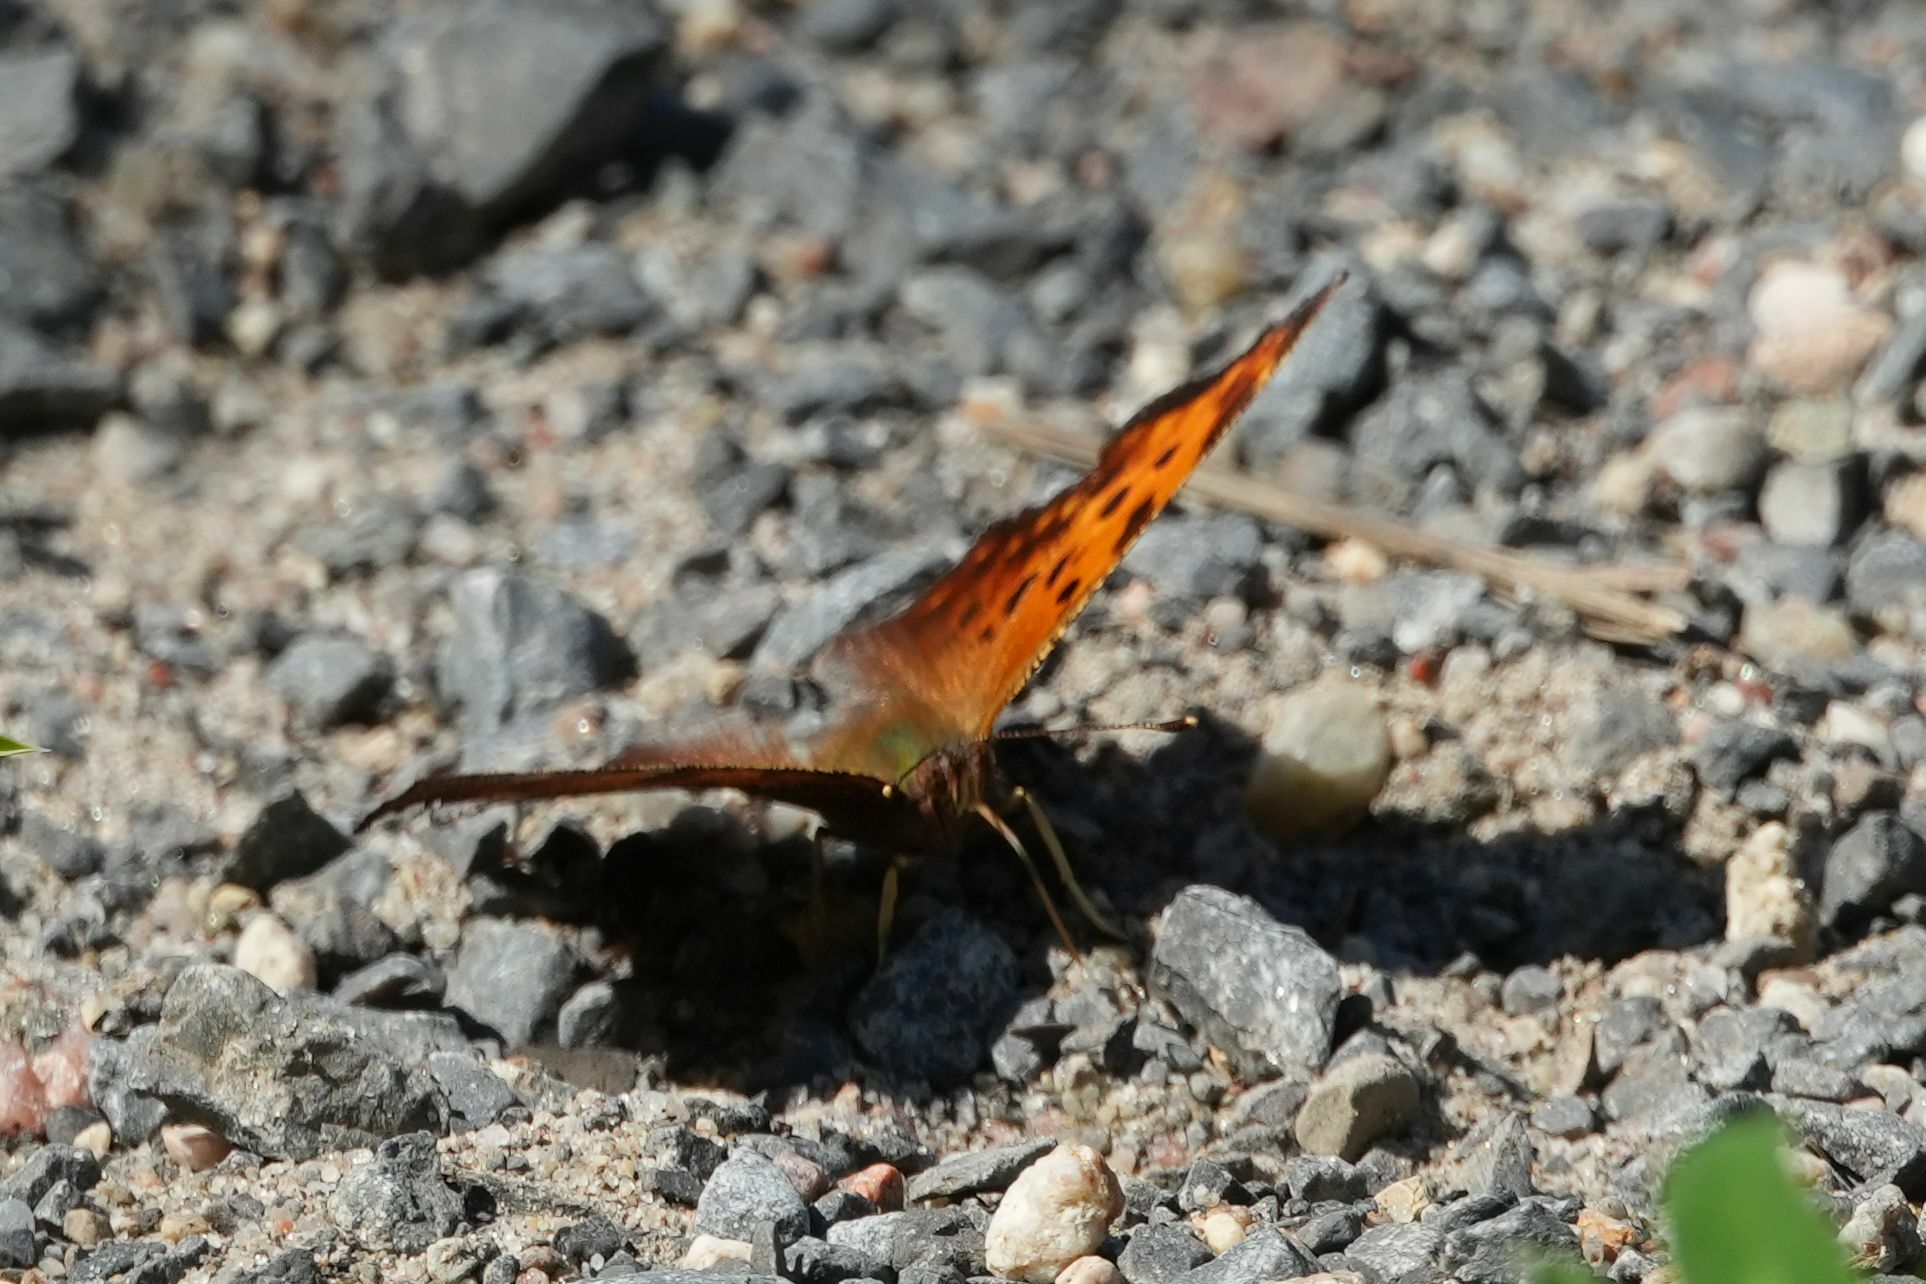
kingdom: Animalia
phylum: Arthropoda
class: Insecta
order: Lepidoptera
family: Nymphalidae
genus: Polygonia
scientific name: Polygonia comma
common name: Eastern comma
